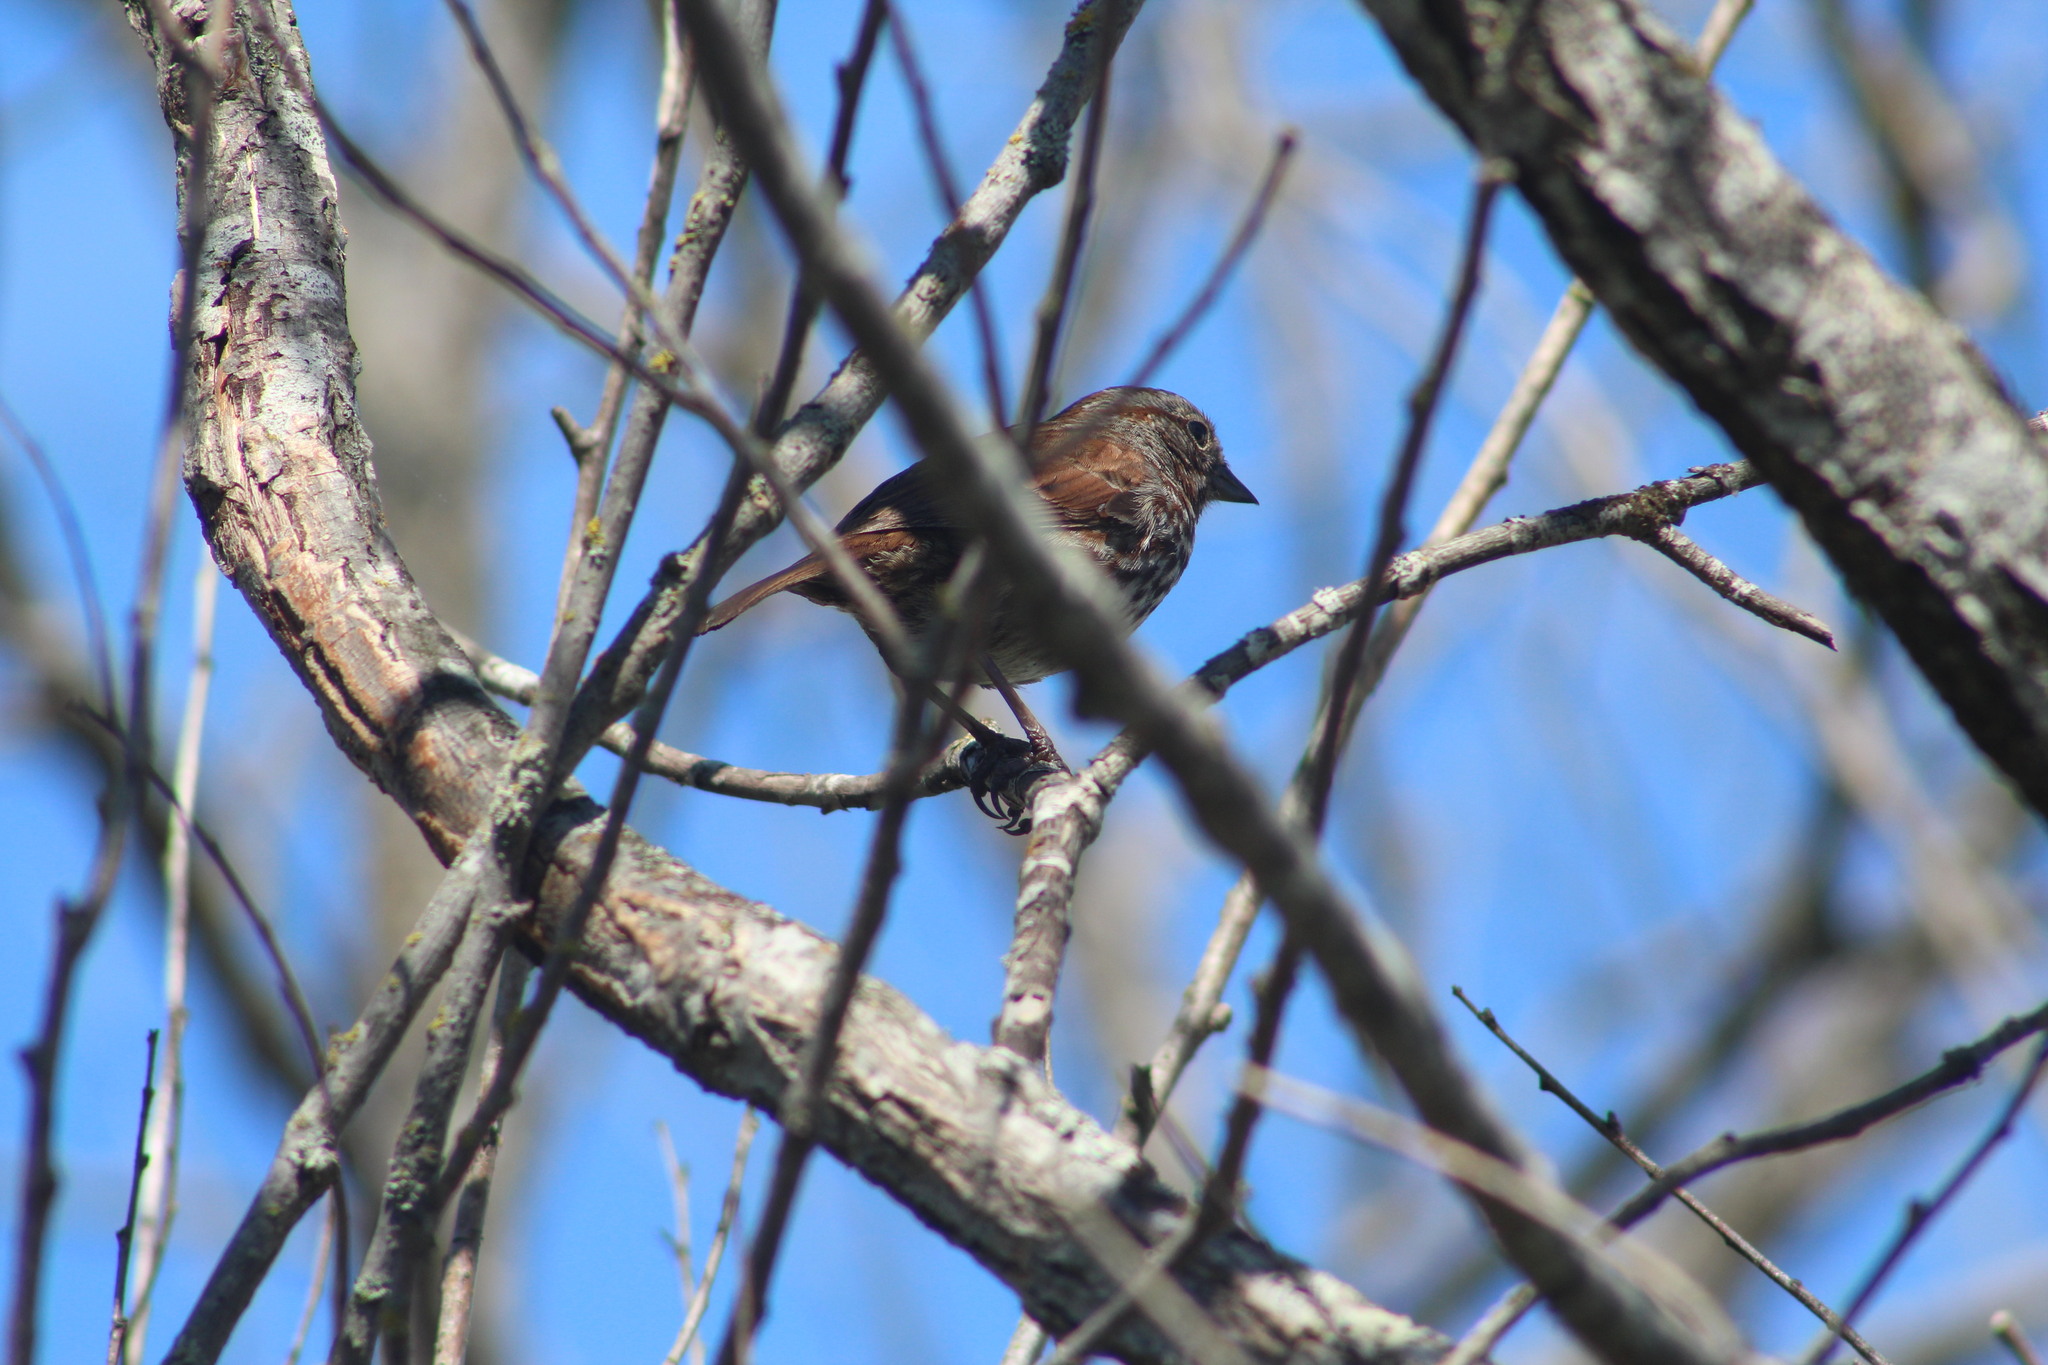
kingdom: Animalia
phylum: Chordata
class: Aves
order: Passeriformes
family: Passerellidae
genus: Melospiza
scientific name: Melospiza melodia
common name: Song sparrow
